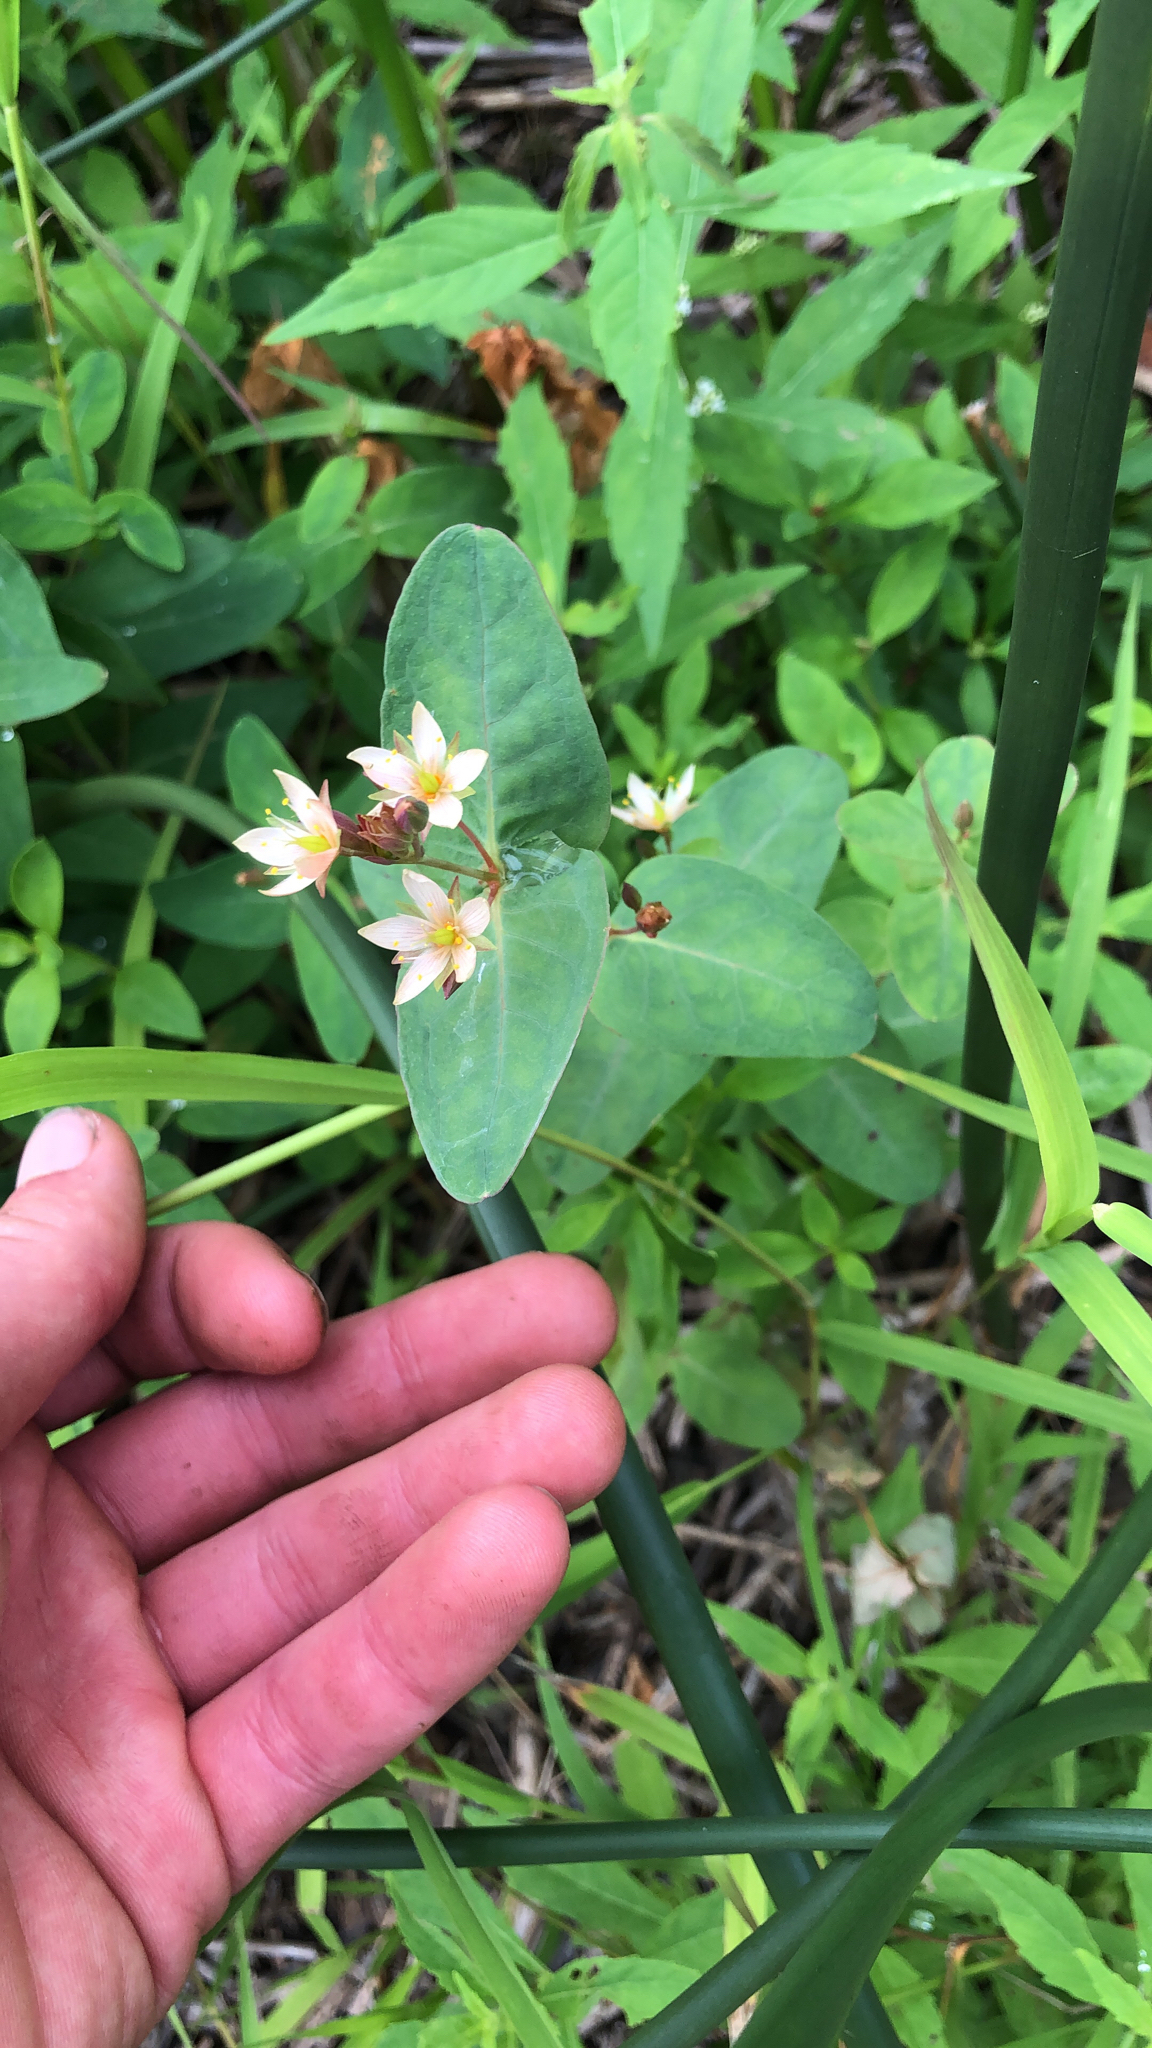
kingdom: Plantae
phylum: Tracheophyta
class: Magnoliopsida
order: Malpighiales
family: Hypericaceae
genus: Triadenum
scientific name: Triadenum virginicum
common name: Marsh st. john's-wort
